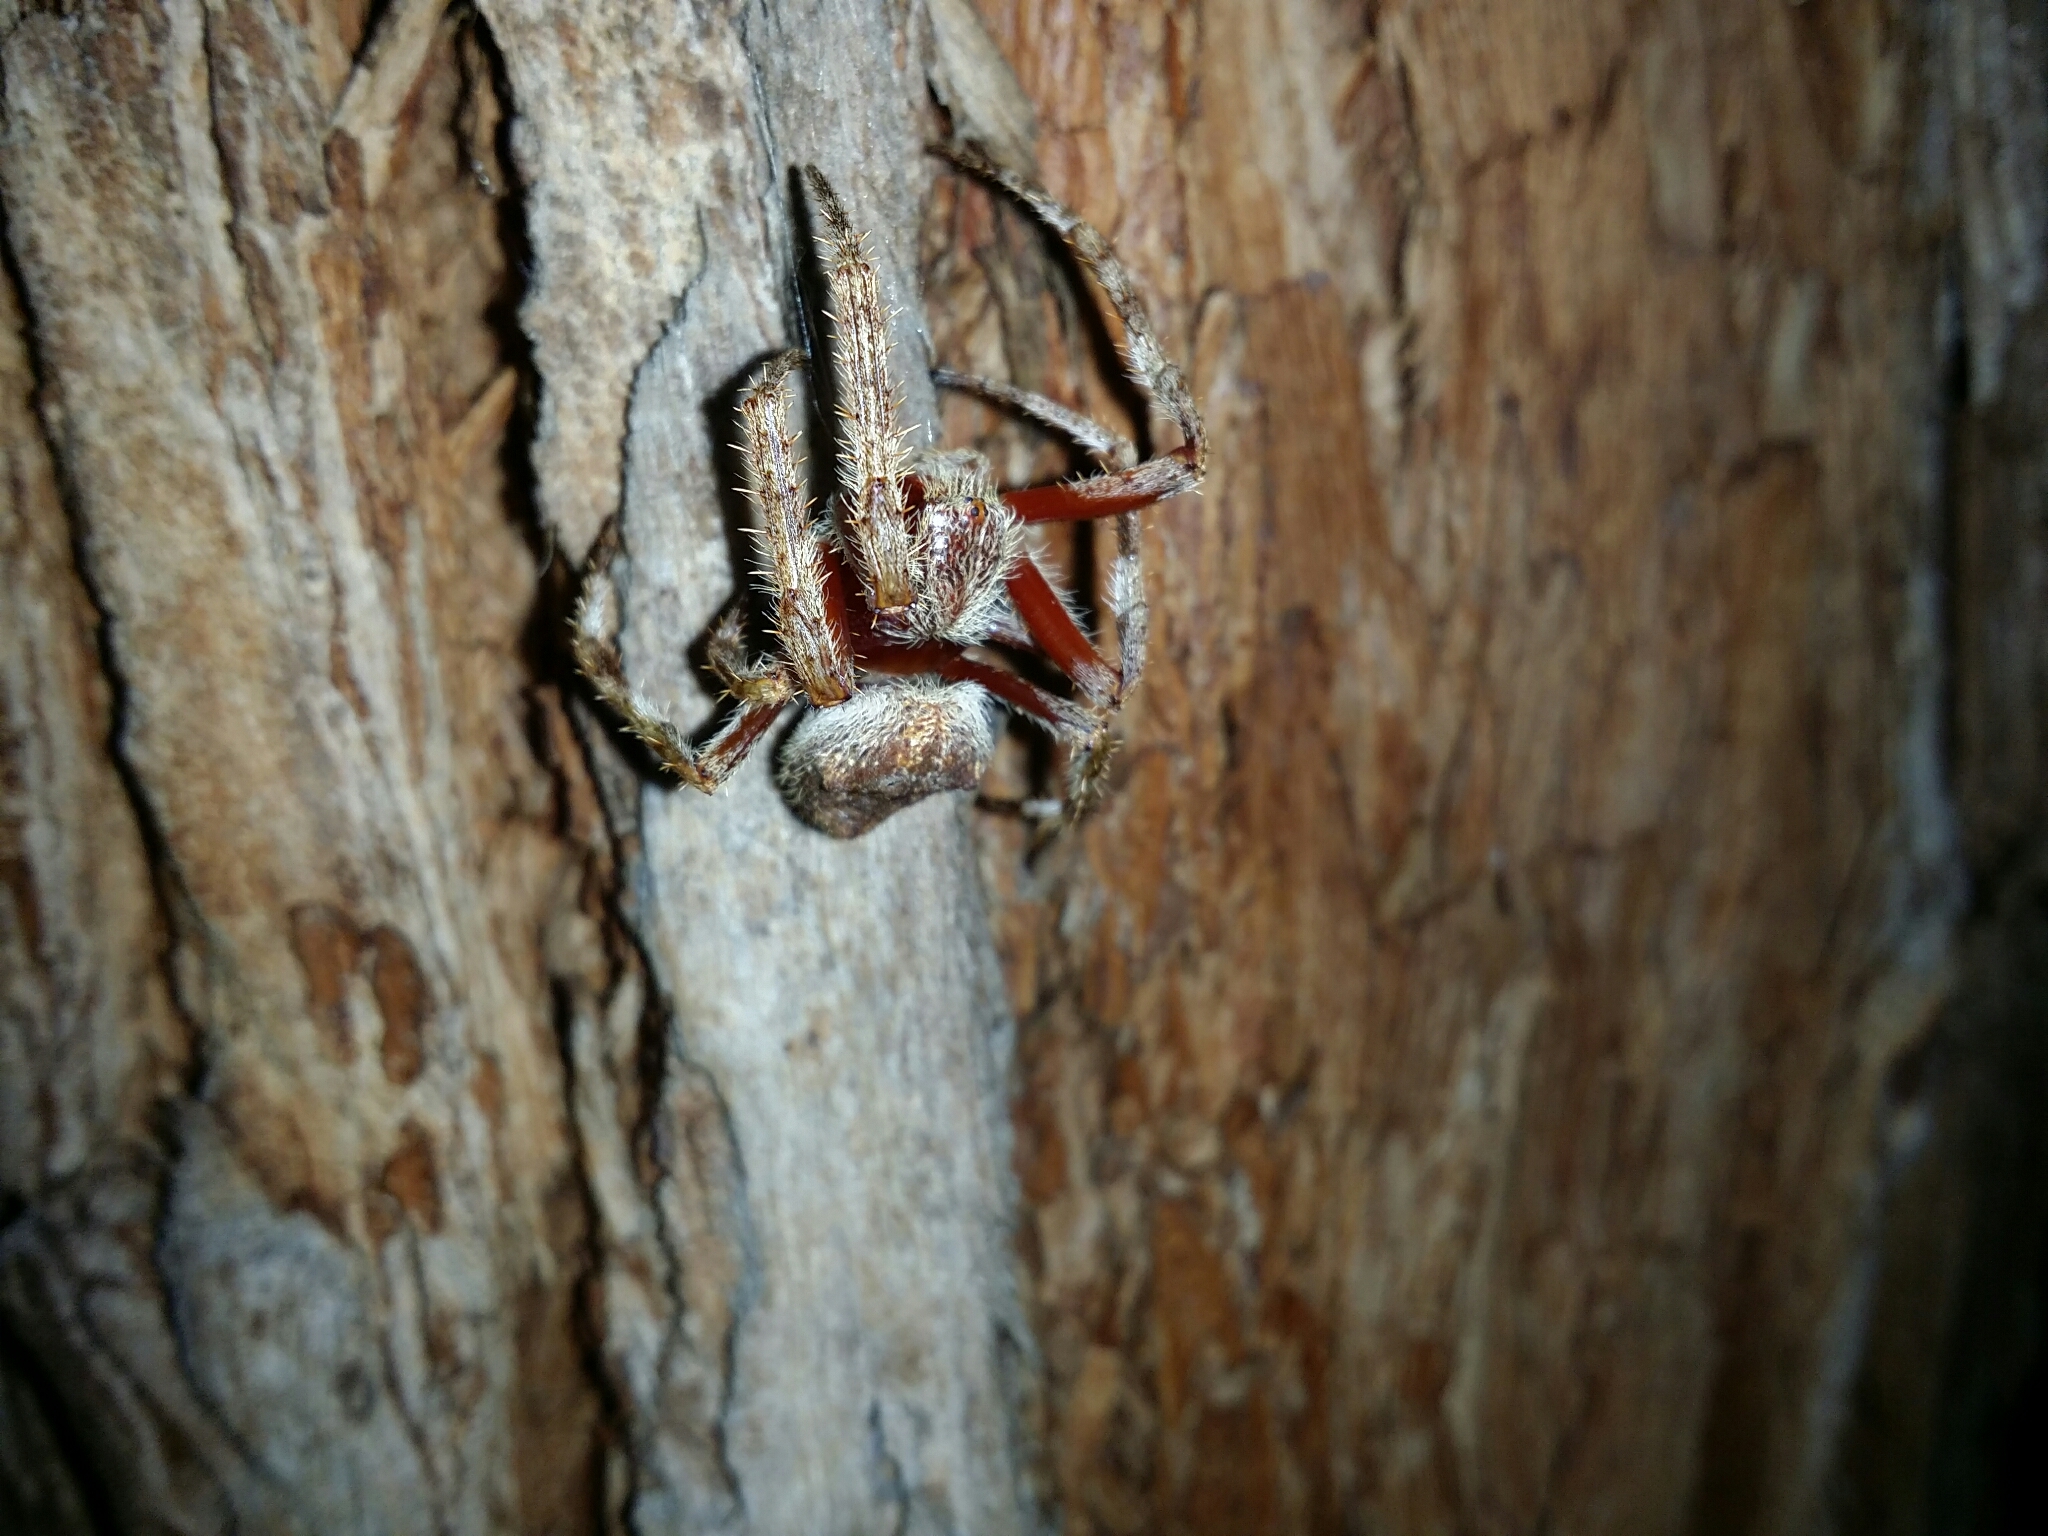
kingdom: Animalia
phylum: Arthropoda
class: Arachnida
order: Araneae
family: Araneidae
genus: Hortophora
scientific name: Hortophora biapicata
